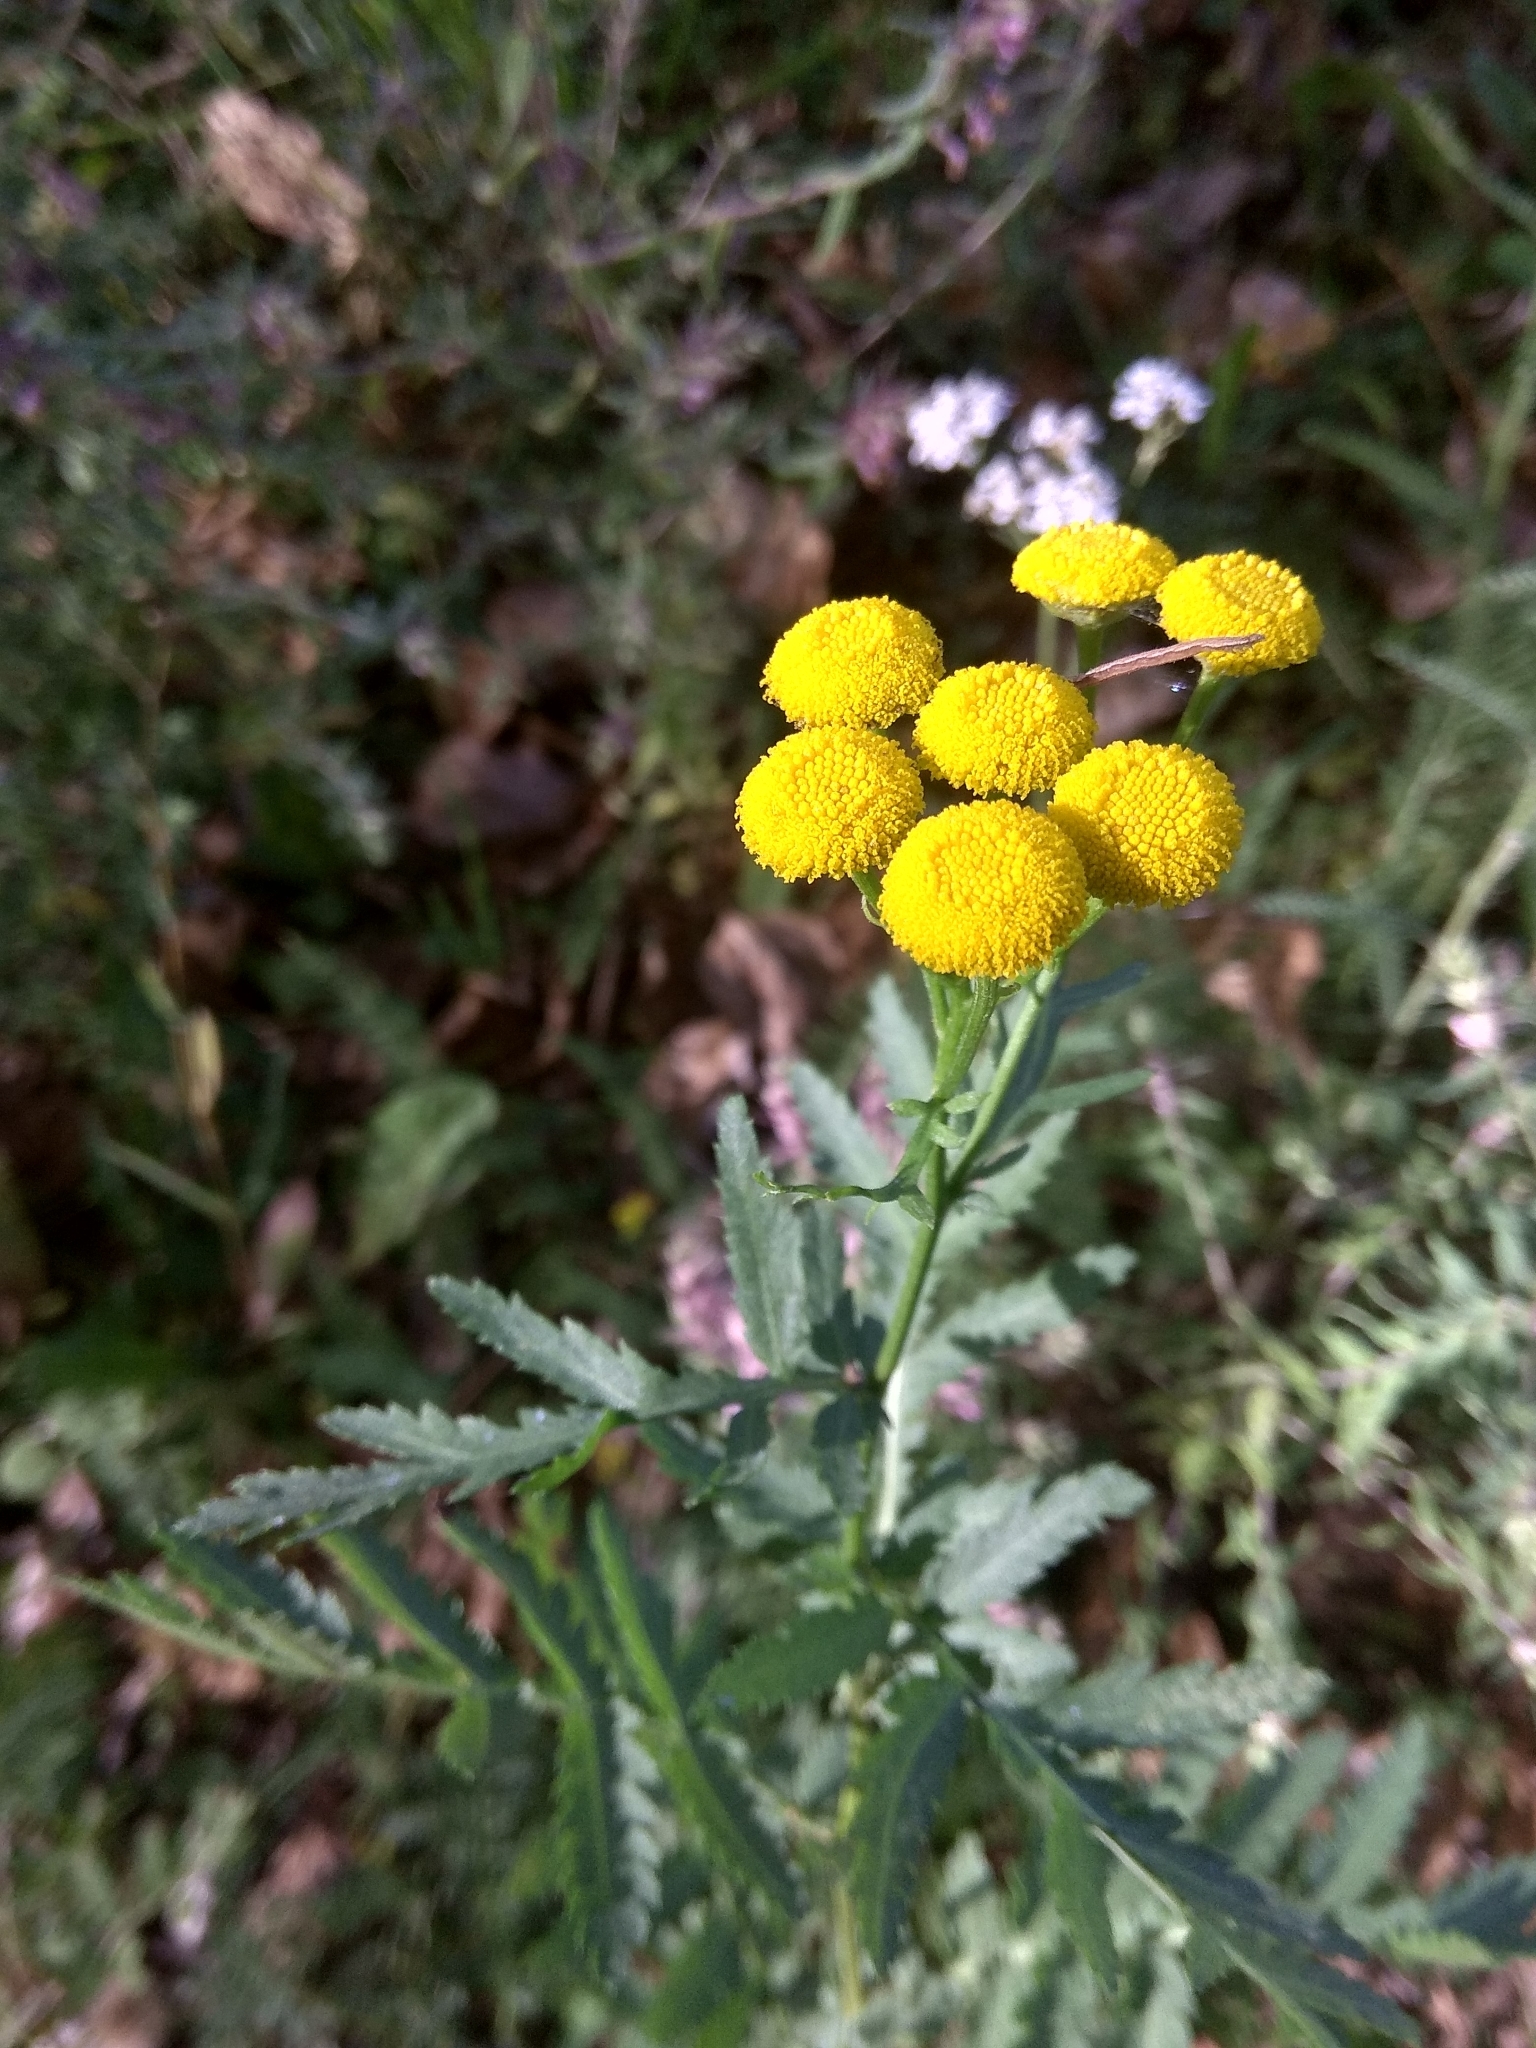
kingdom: Plantae
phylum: Tracheophyta
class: Magnoliopsida
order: Asterales
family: Asteraceae
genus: Tanacetum
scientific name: Tanacetum vulgare
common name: Common tansy
